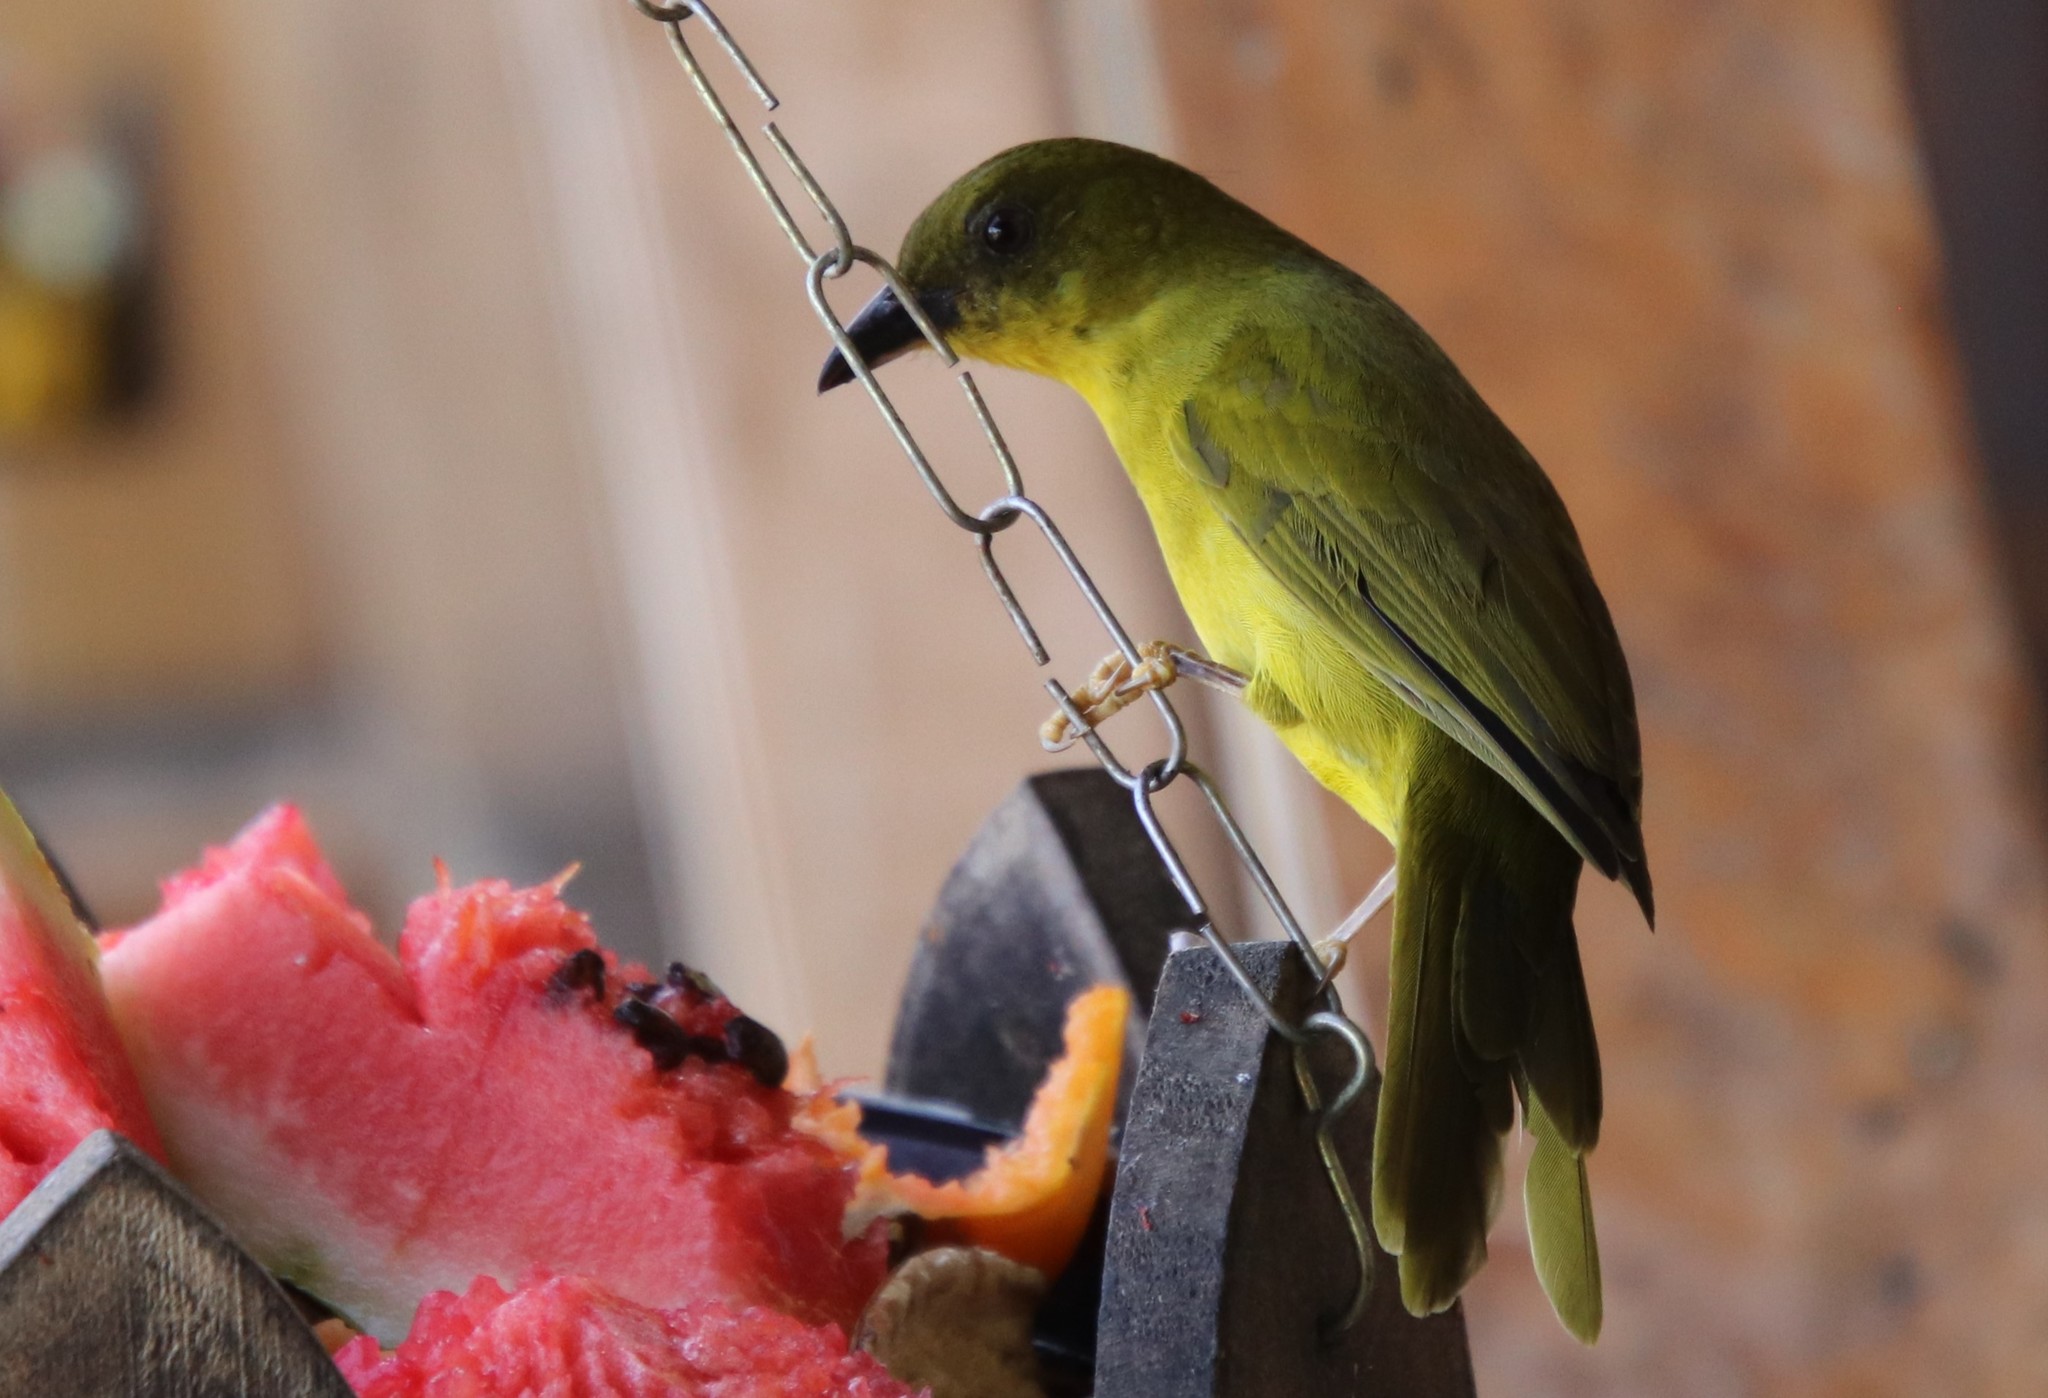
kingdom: Animalia
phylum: Chordata
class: Aves
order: Passeriformes
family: Mitrospingidae
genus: Orthogonys
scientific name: Orthogonys chloricterus
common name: Olive-green tanager
